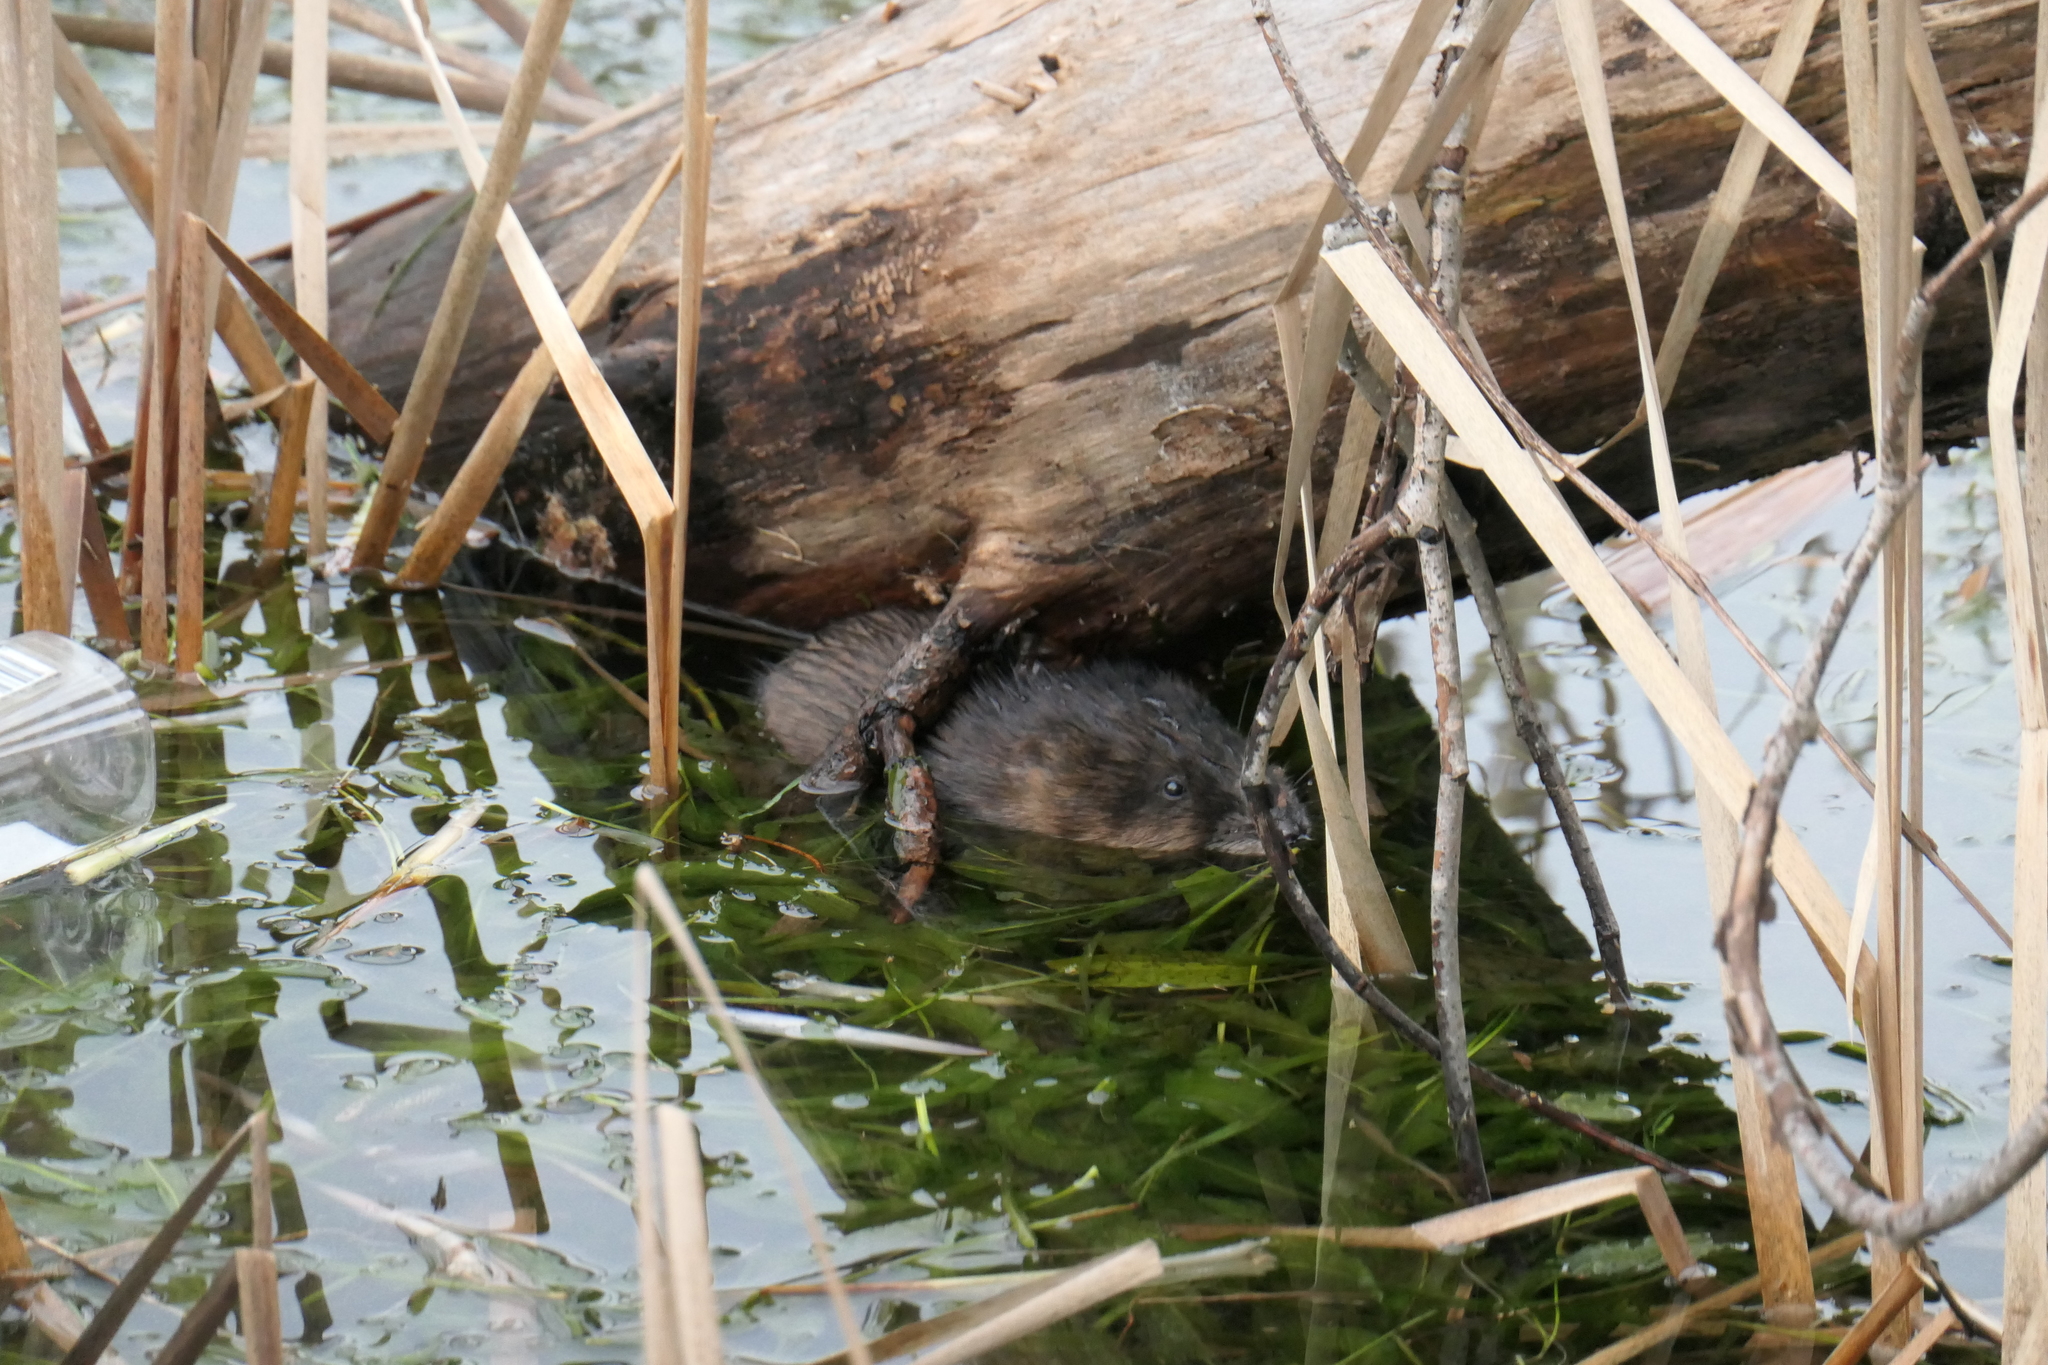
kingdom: Animalia
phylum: Chordata
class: Mammalia
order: Rodentia
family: Cricetidae
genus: Ondatra
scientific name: Ondatra zibethicus
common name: Muskrat
